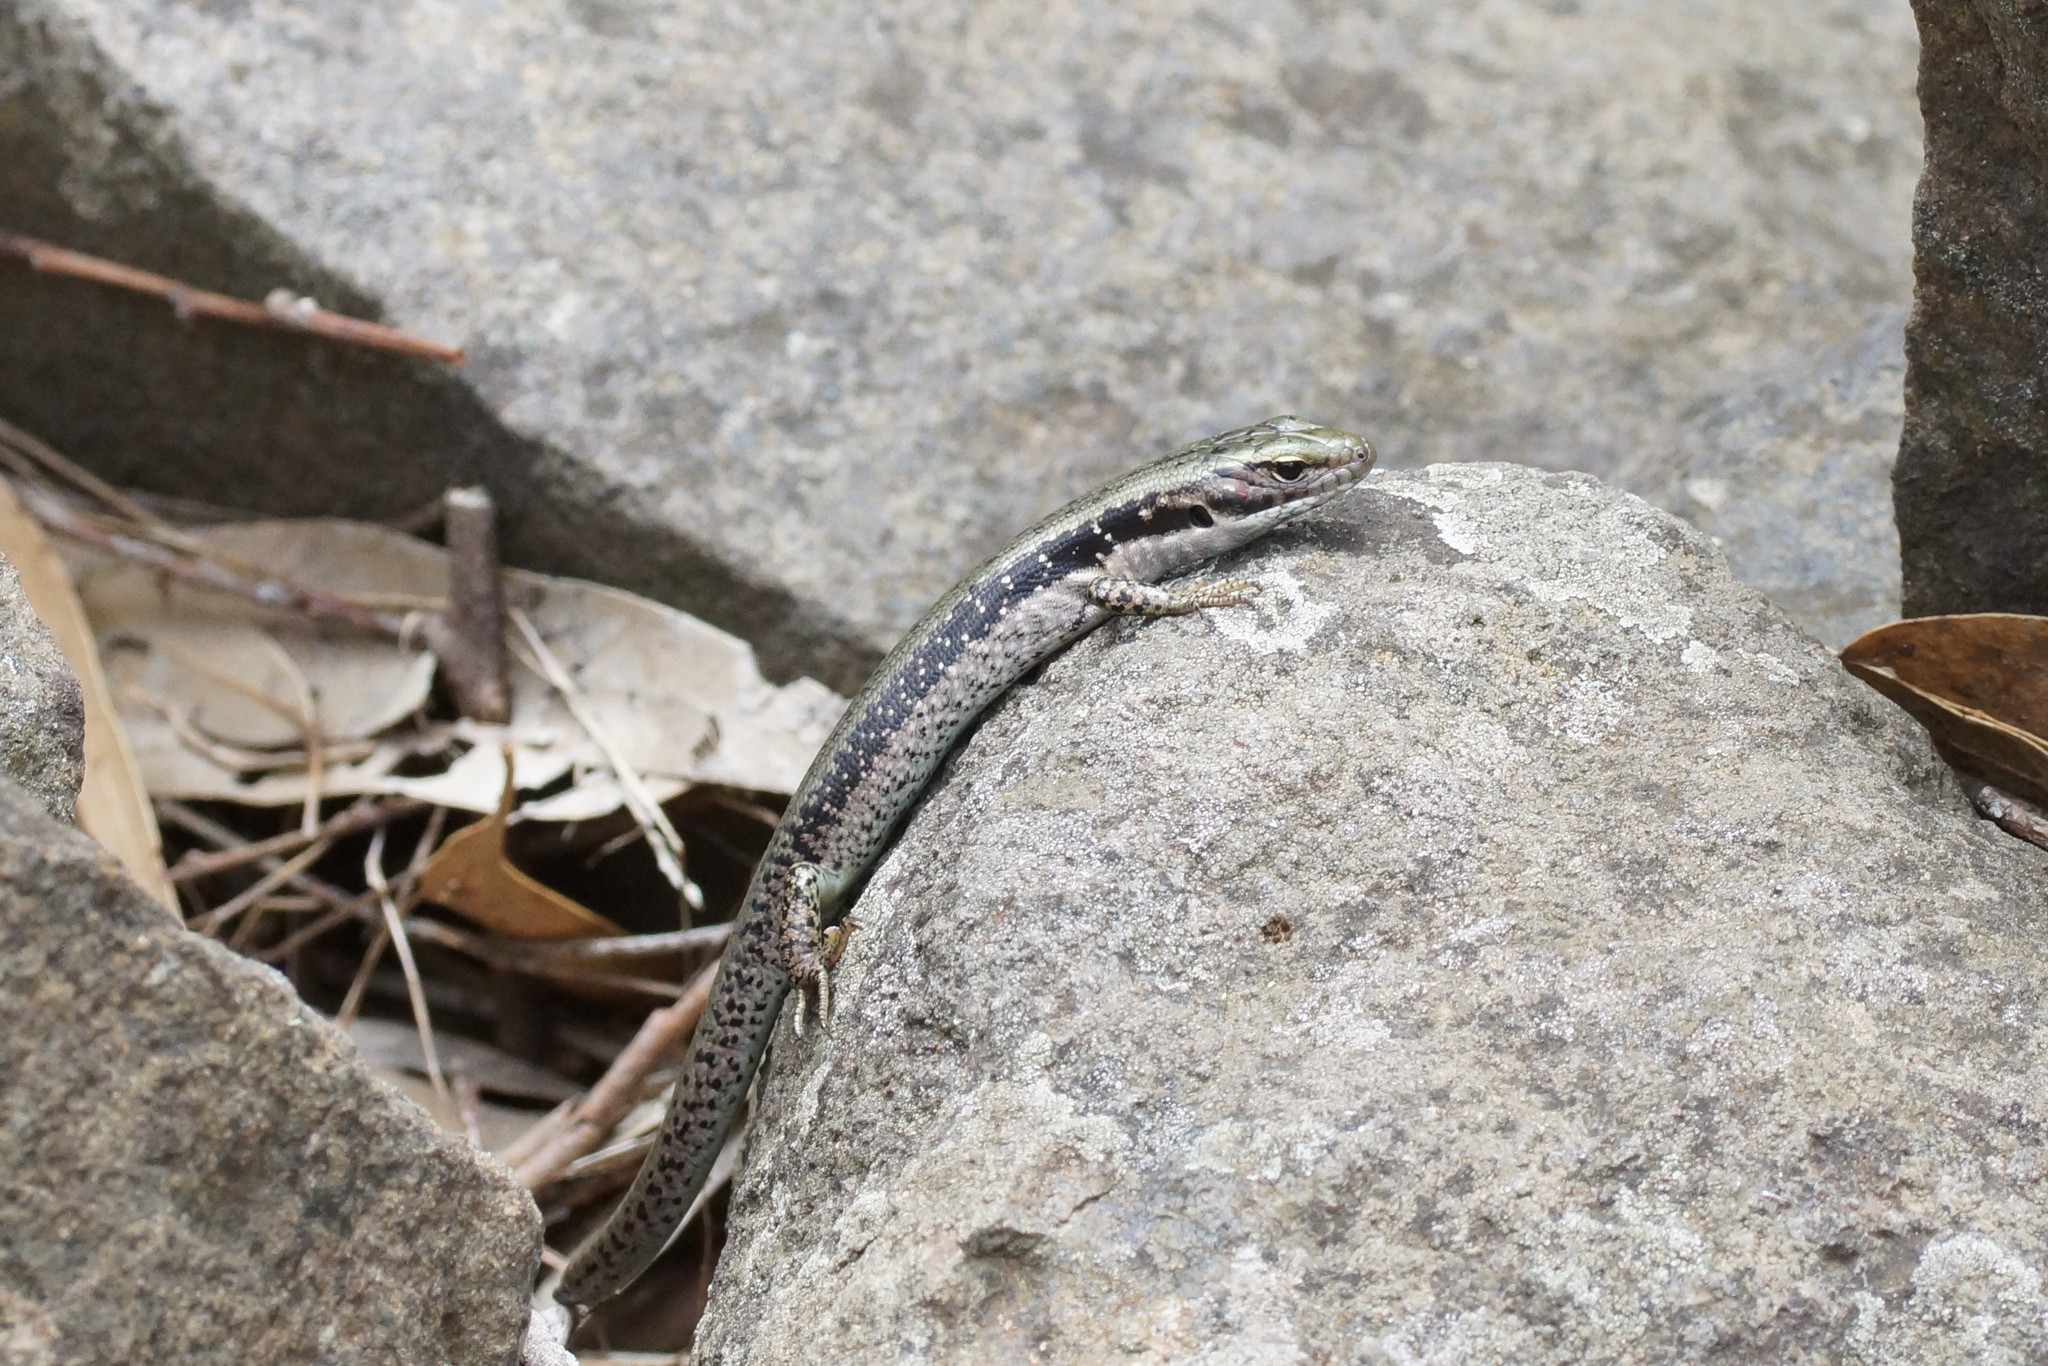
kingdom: Animalia
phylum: Chordata
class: Squamata
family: Scincidae
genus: Eulamprus
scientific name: Eulamprus tympanum
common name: Cool-temperate water-skink
